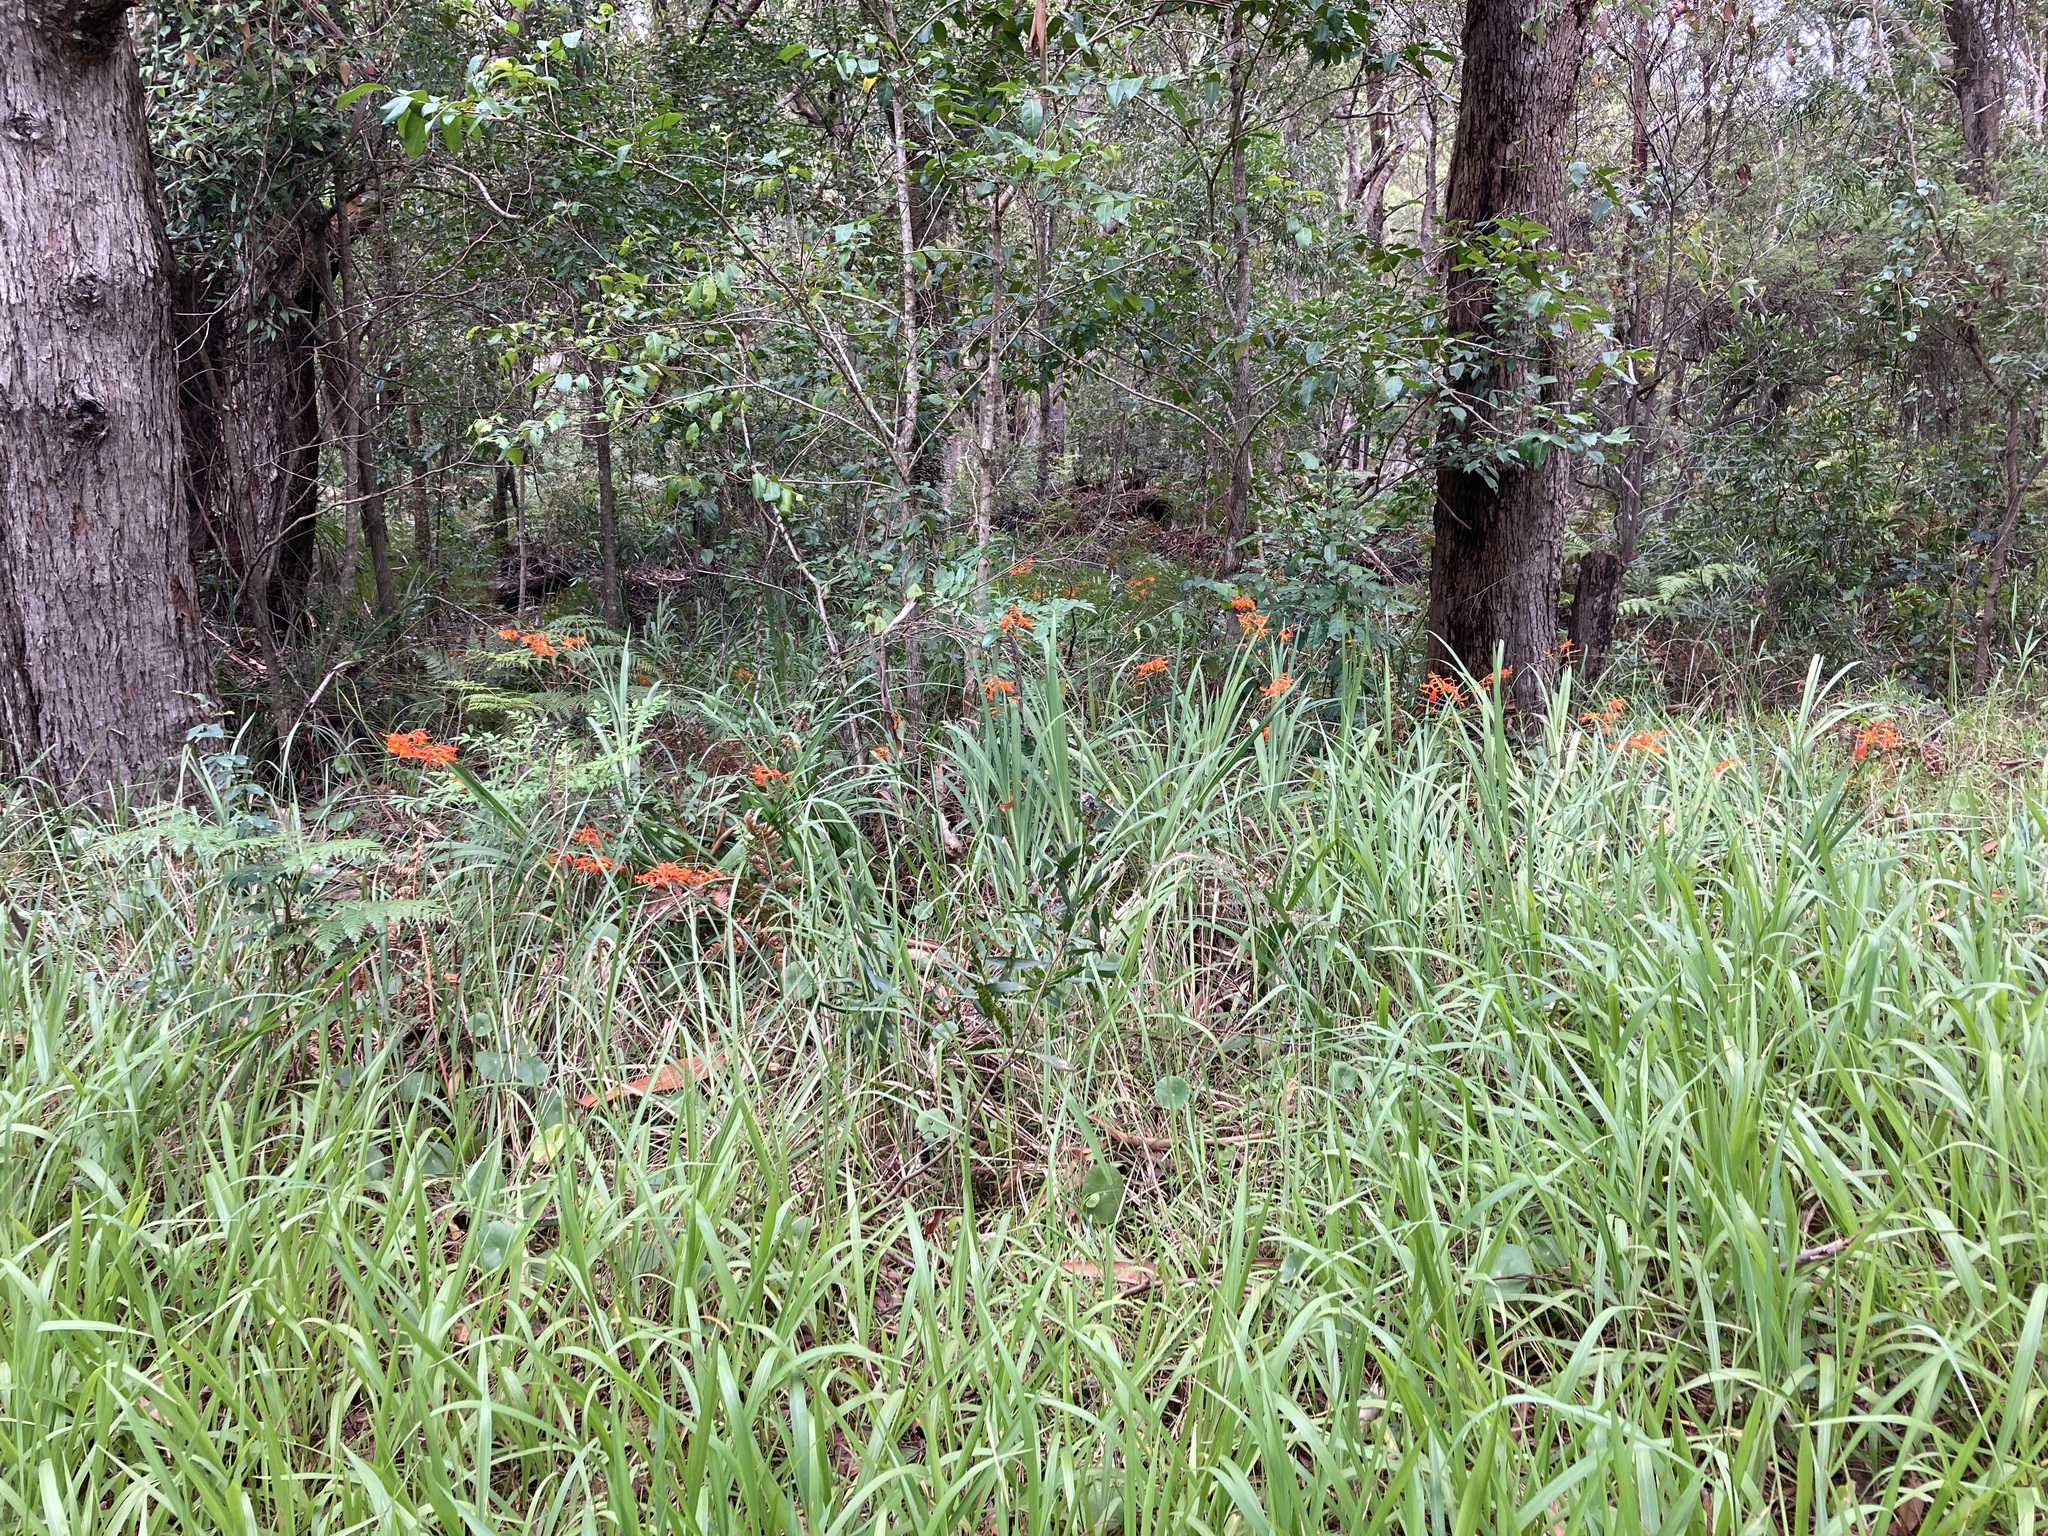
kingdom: Plantae
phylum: Tracheophyta
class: Liliopsida
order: Asparagales
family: Iridaceae
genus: Crocosmia
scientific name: Crocosmia crocosmiiflora
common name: Montbretia
